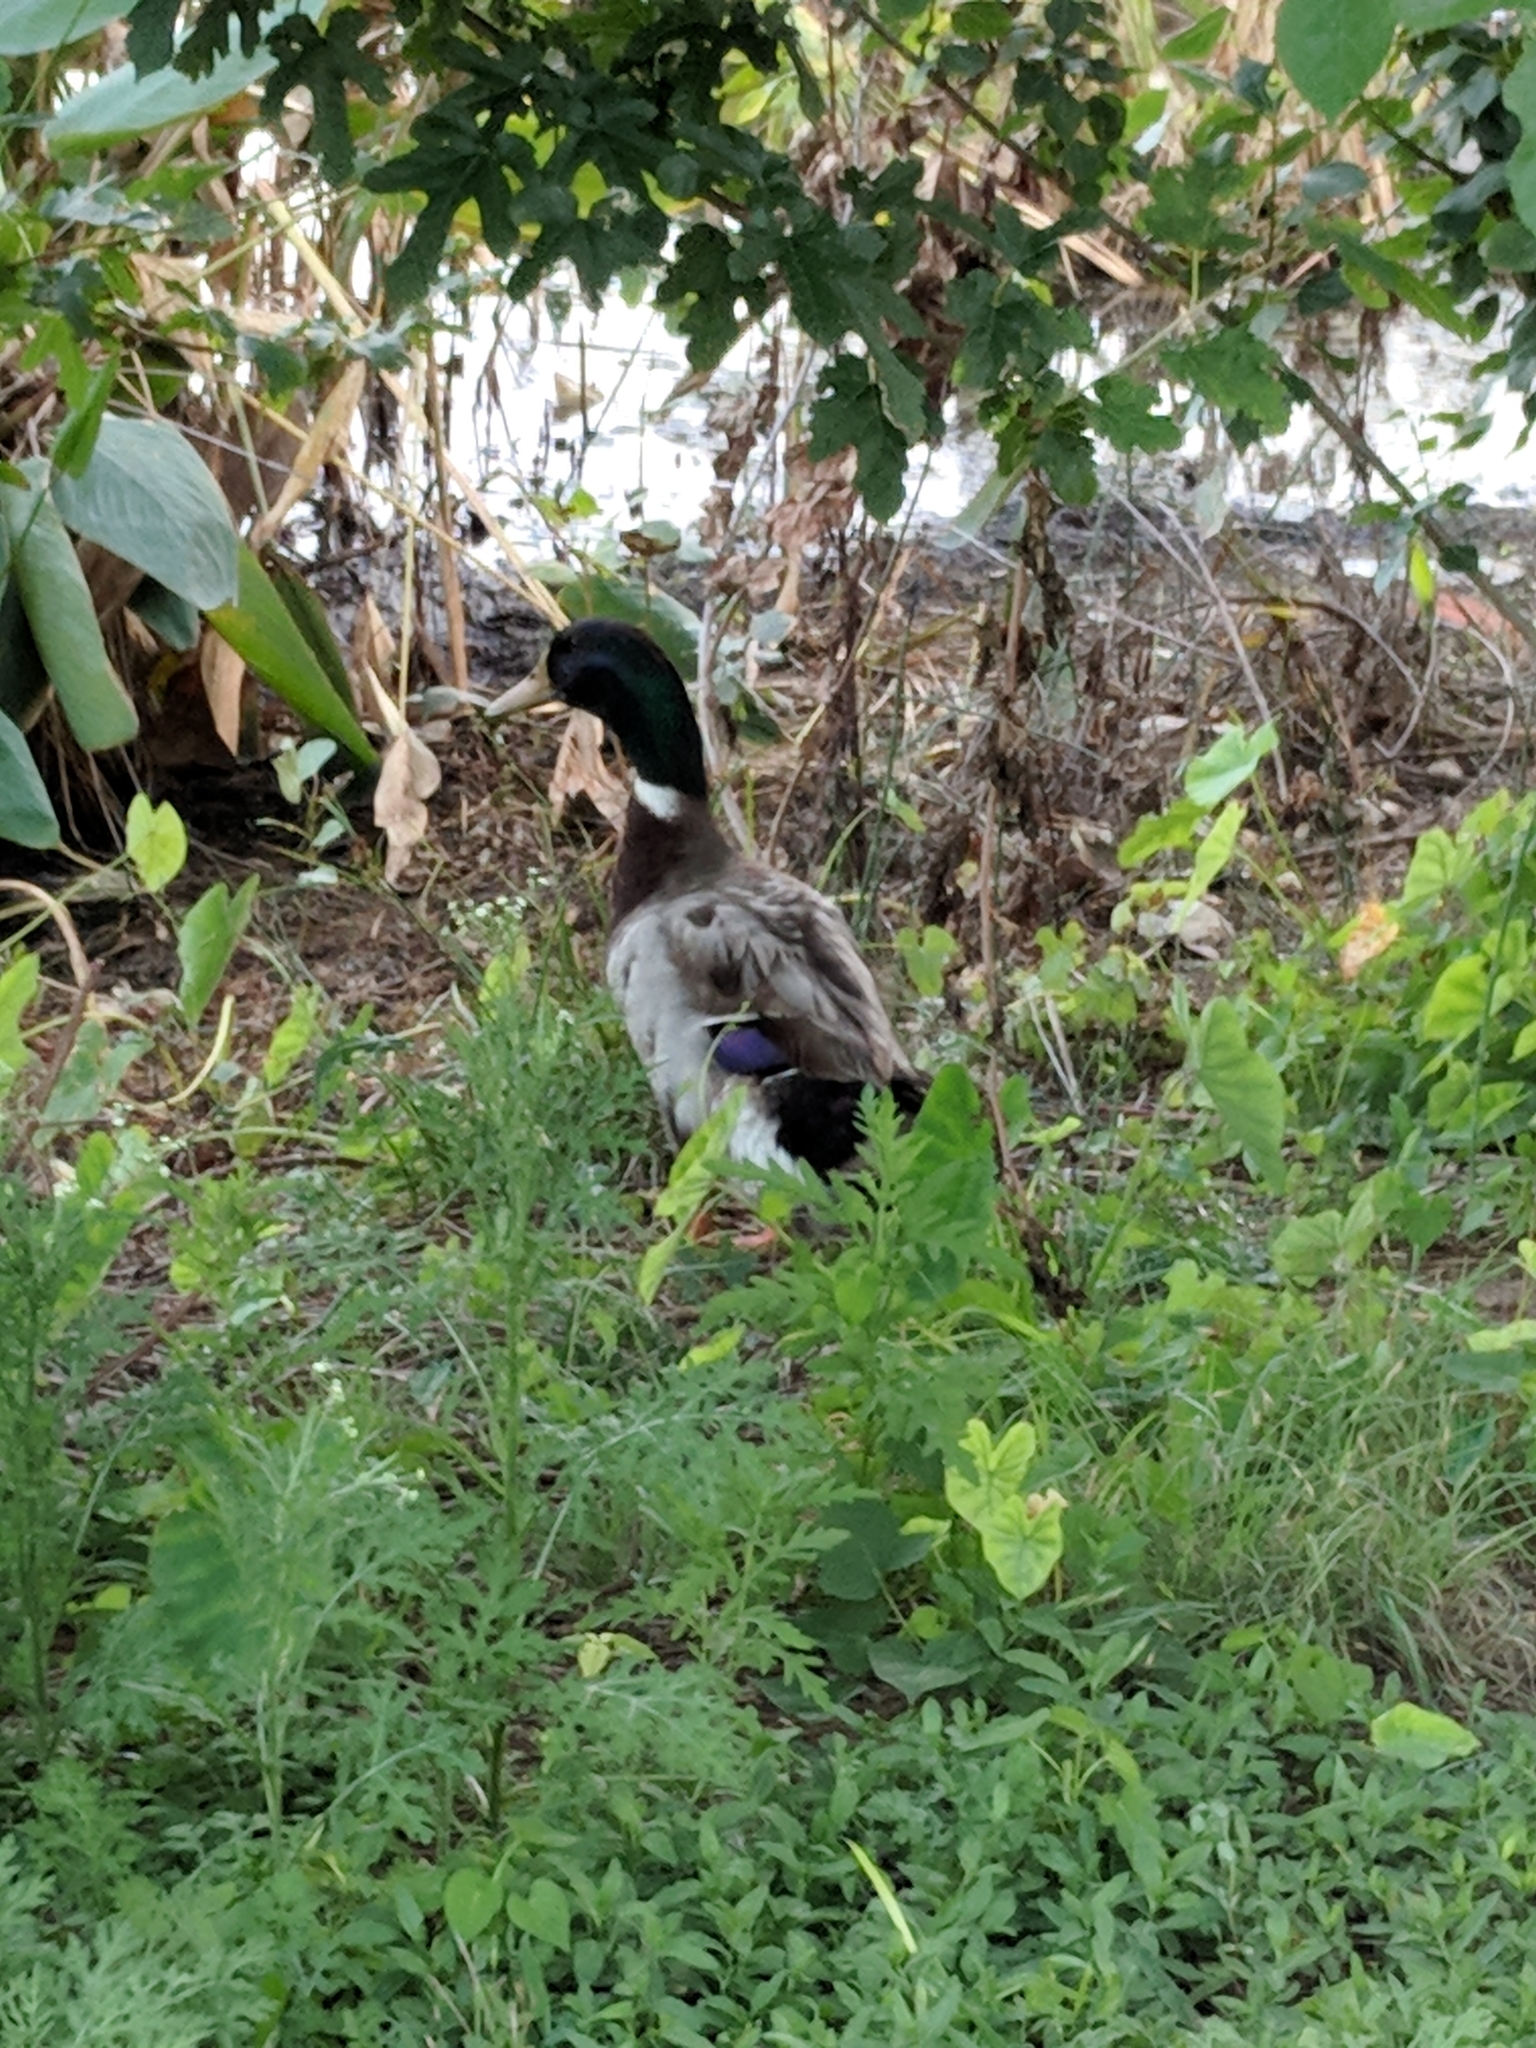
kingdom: Animalia
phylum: Chordata
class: Aves
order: Anseriformes
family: Anatidae
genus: Anas
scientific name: Anas platyrhynchos
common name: Mallard
